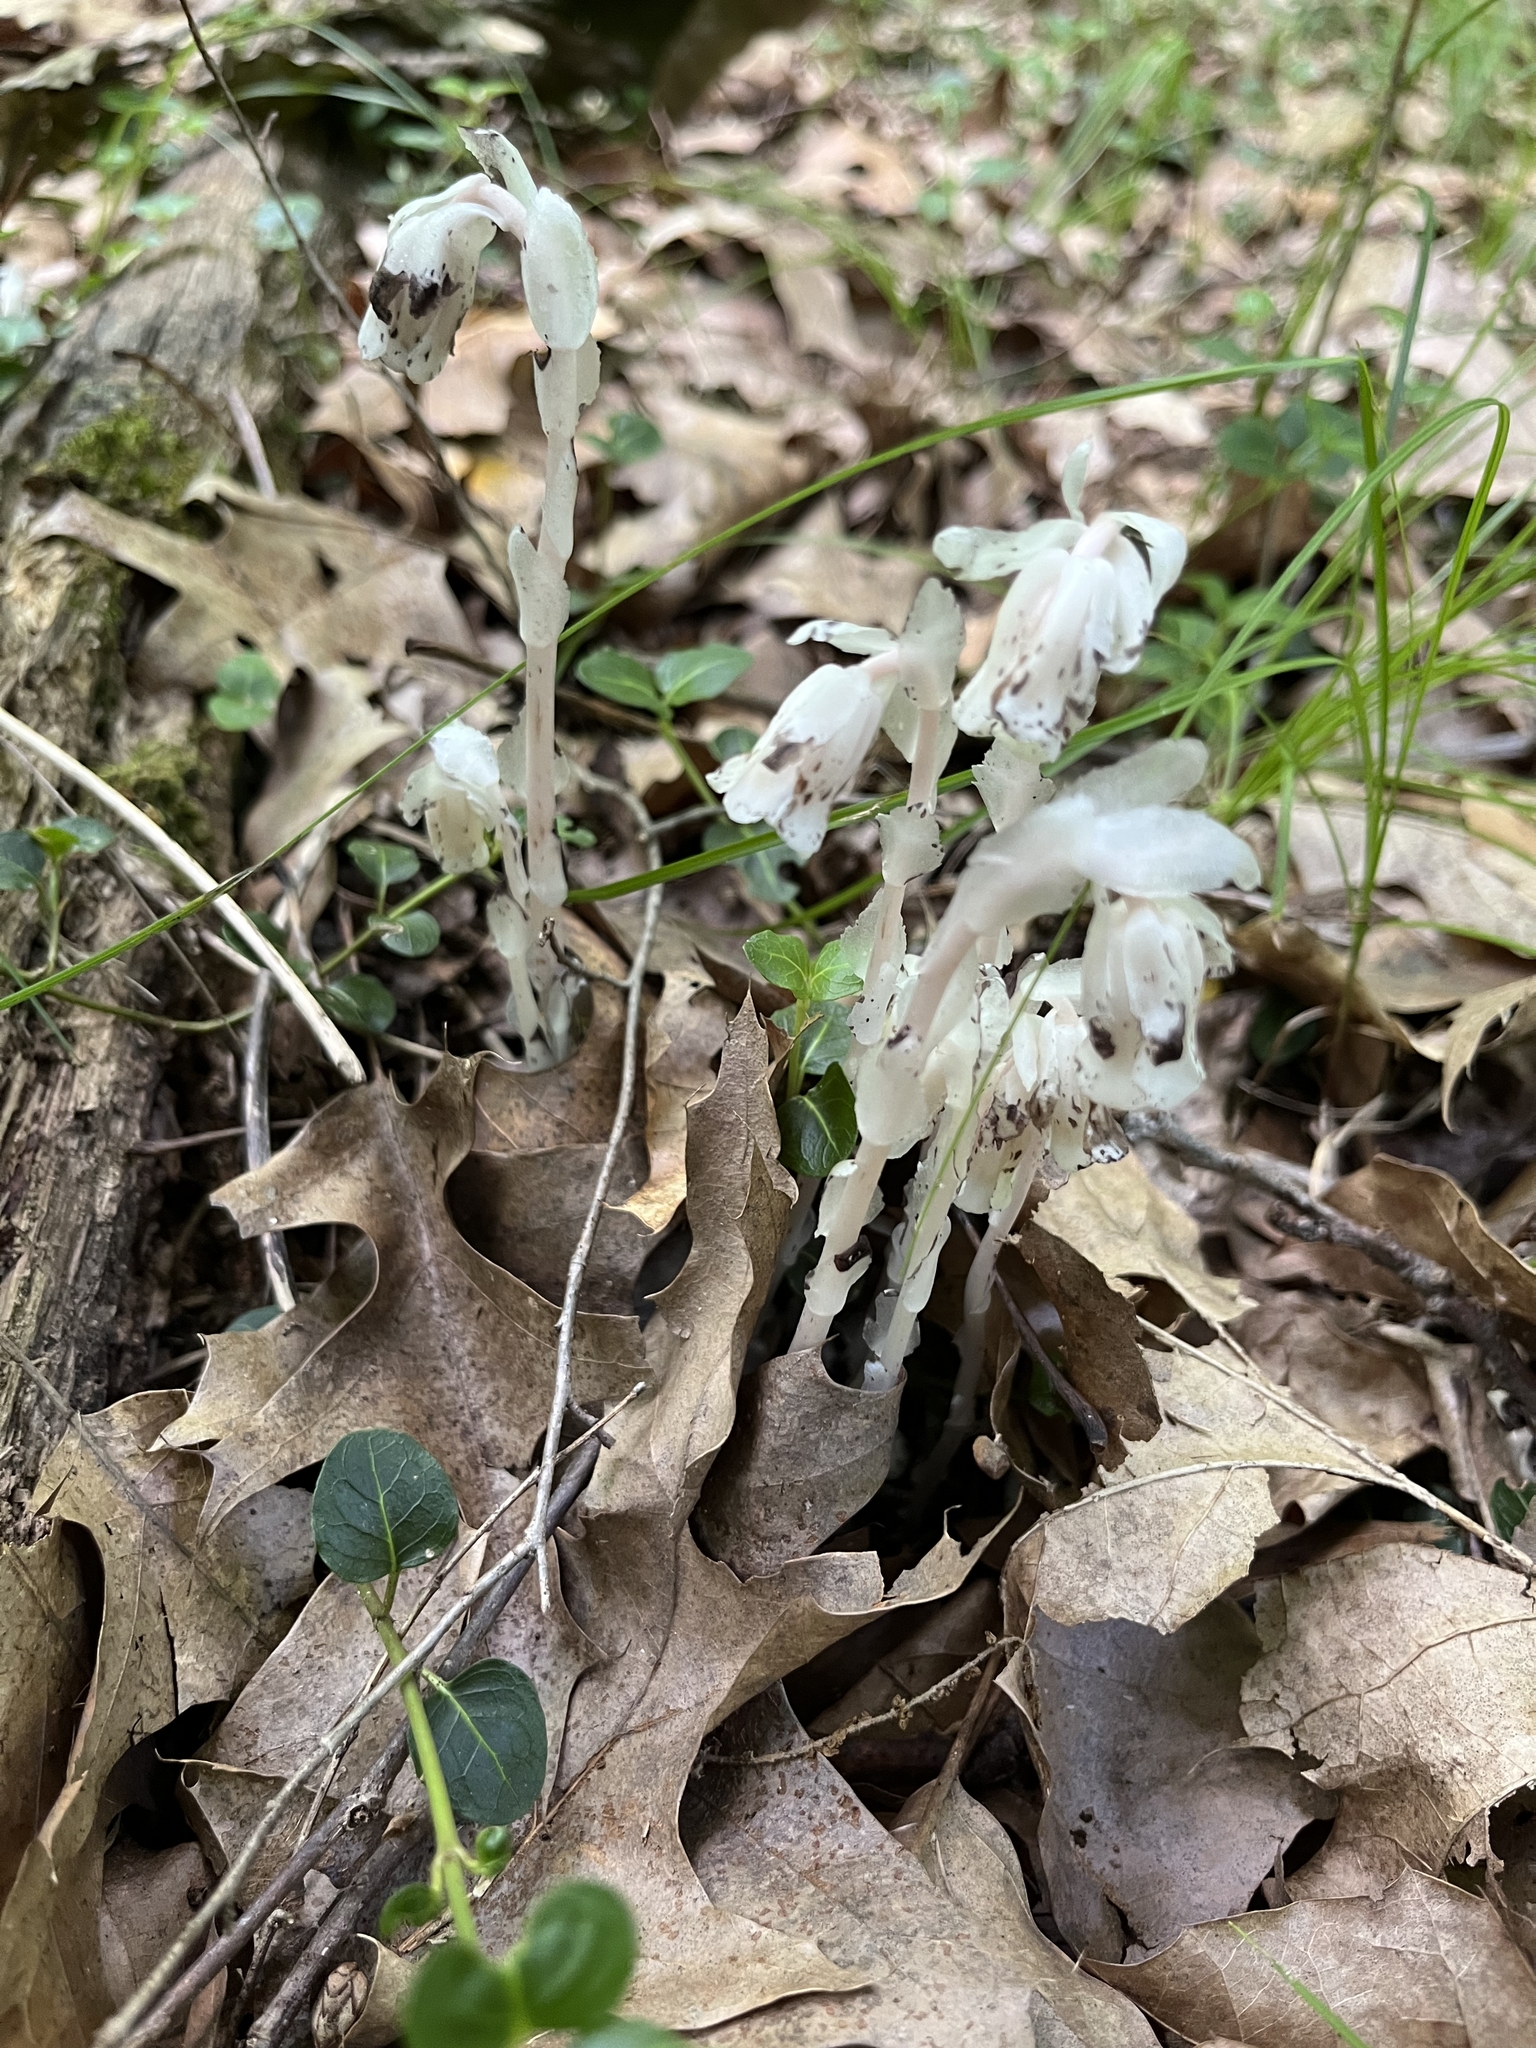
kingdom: Plantae
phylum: Tracheophyta
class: Magnoliopsida
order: Ericales
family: Ericaceae
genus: Monotropa
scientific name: Monotropa uniflora
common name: Convulsion root
